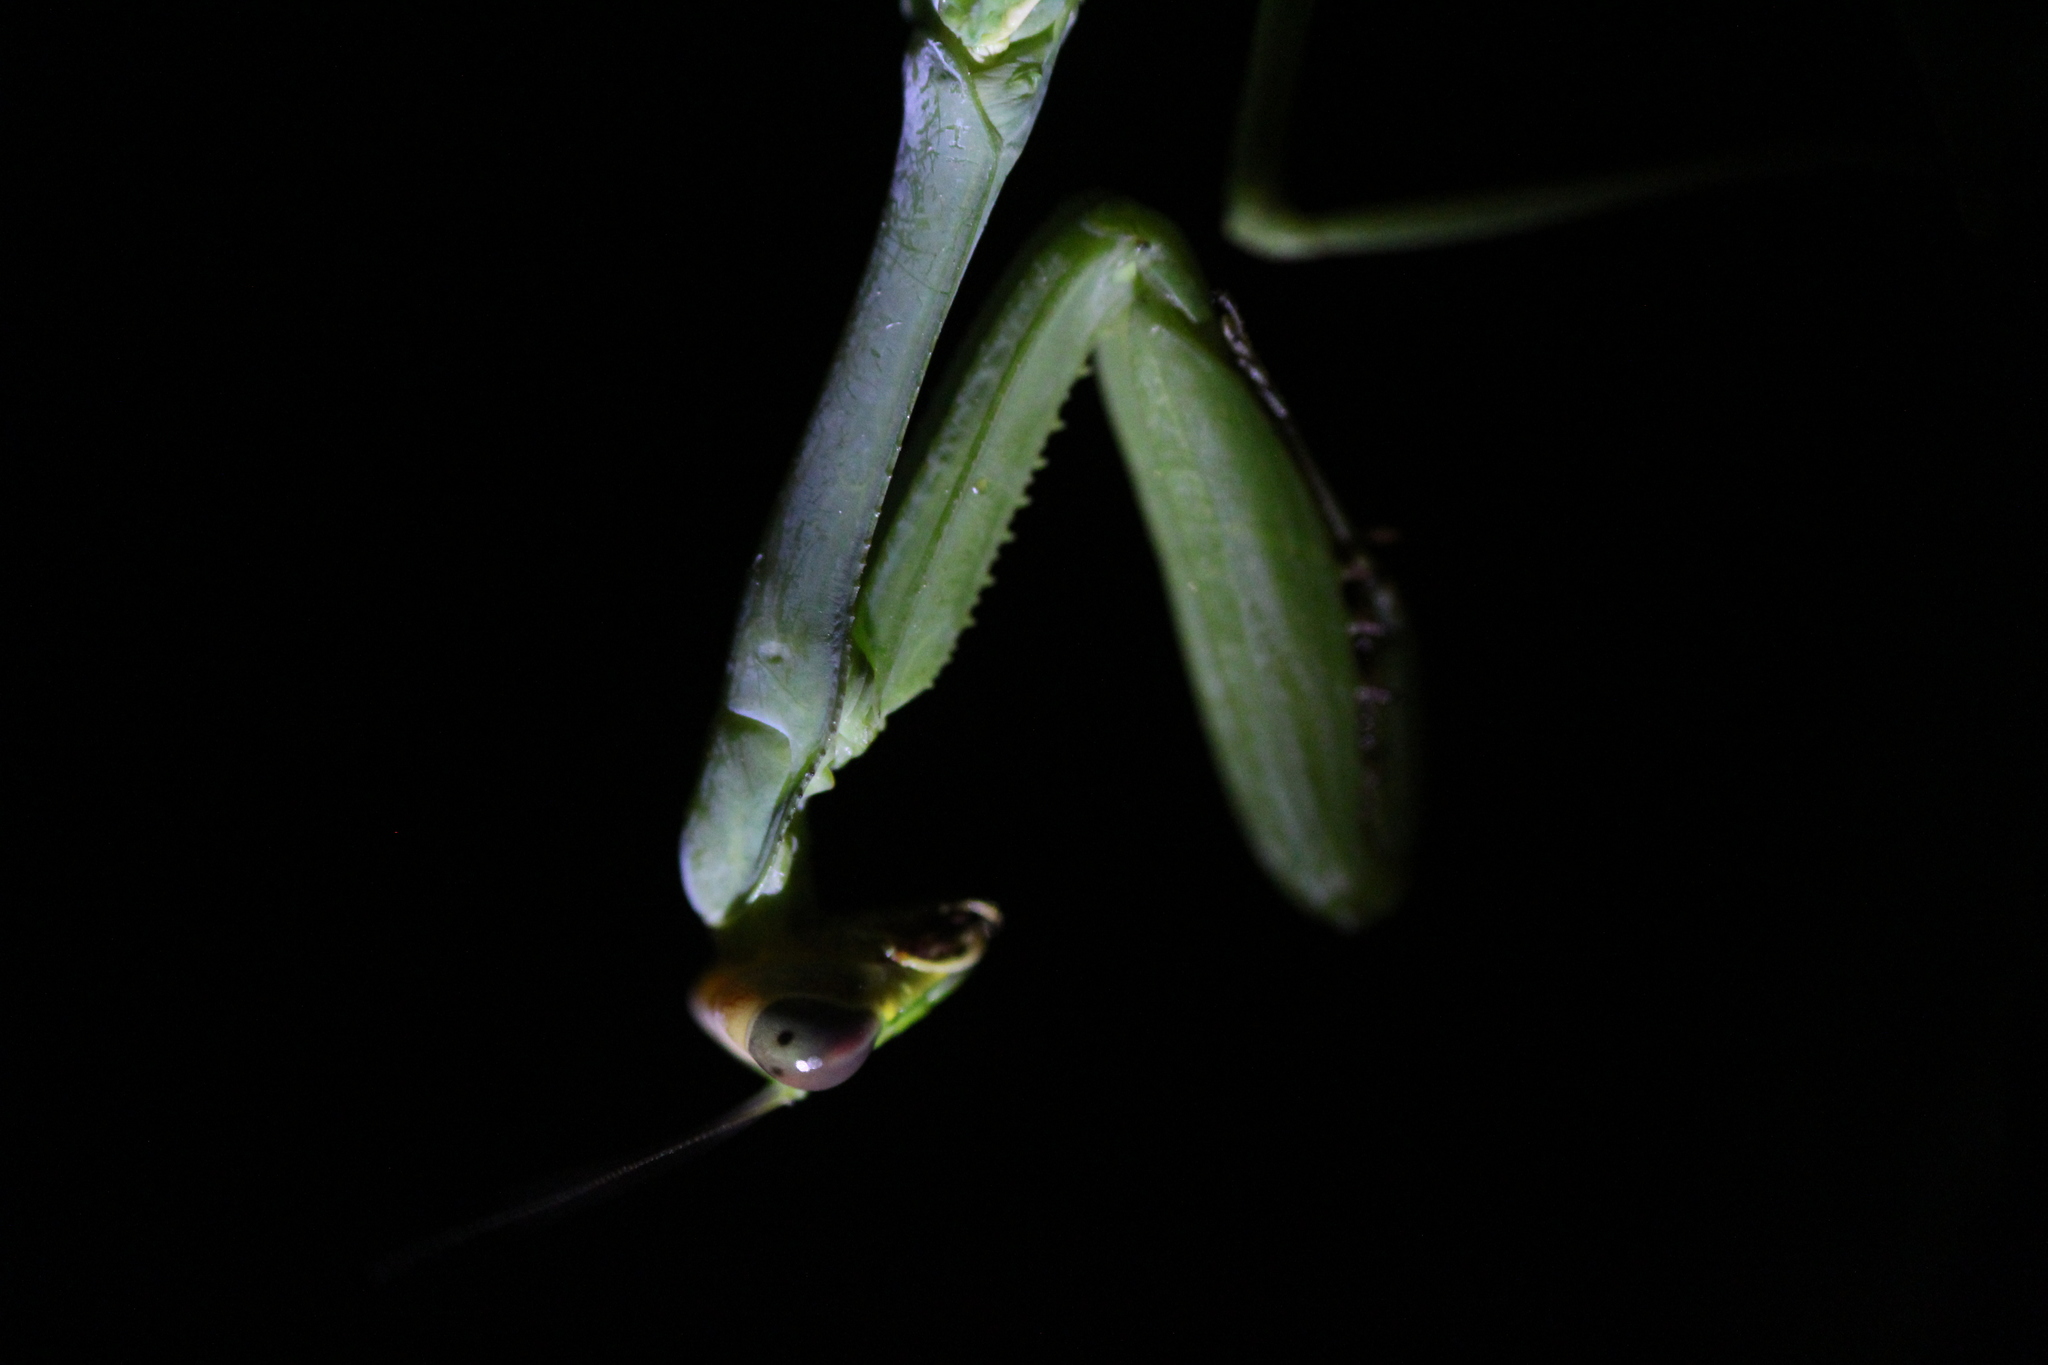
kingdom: Animalia
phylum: Arthropoda
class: Insecta
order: Mantodea
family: Mantidae
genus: Stagmatoptera
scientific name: Stagmatoptera hyaloptera
